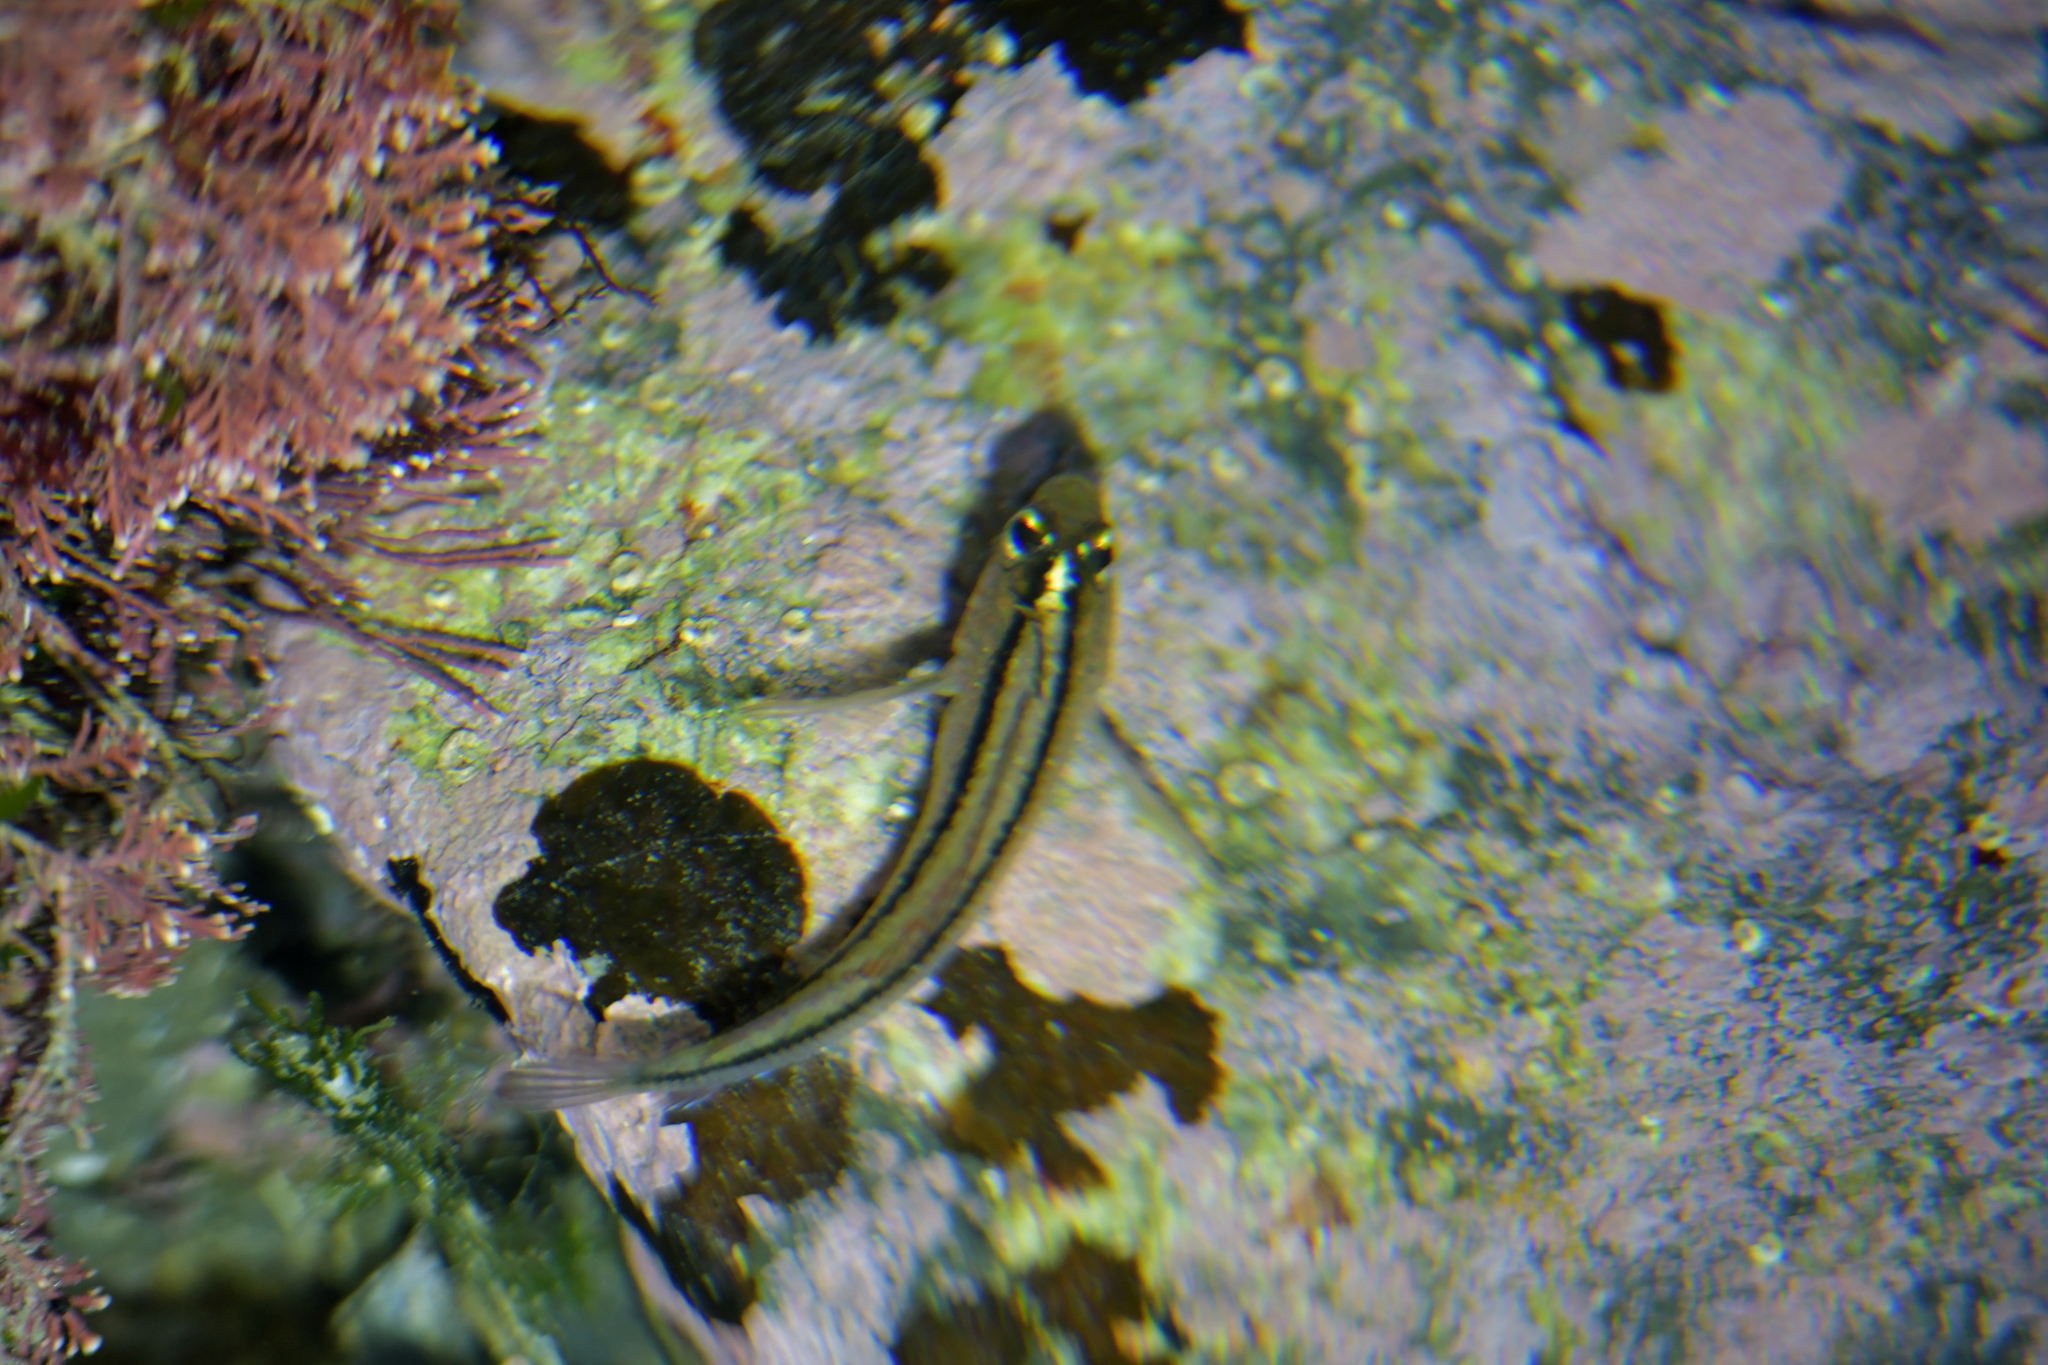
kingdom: Animalia
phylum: Chordata
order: Perciformes
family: Tripterygiidae
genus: Forsterygion
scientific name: Forsterygion lapillum
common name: Common triplefin
